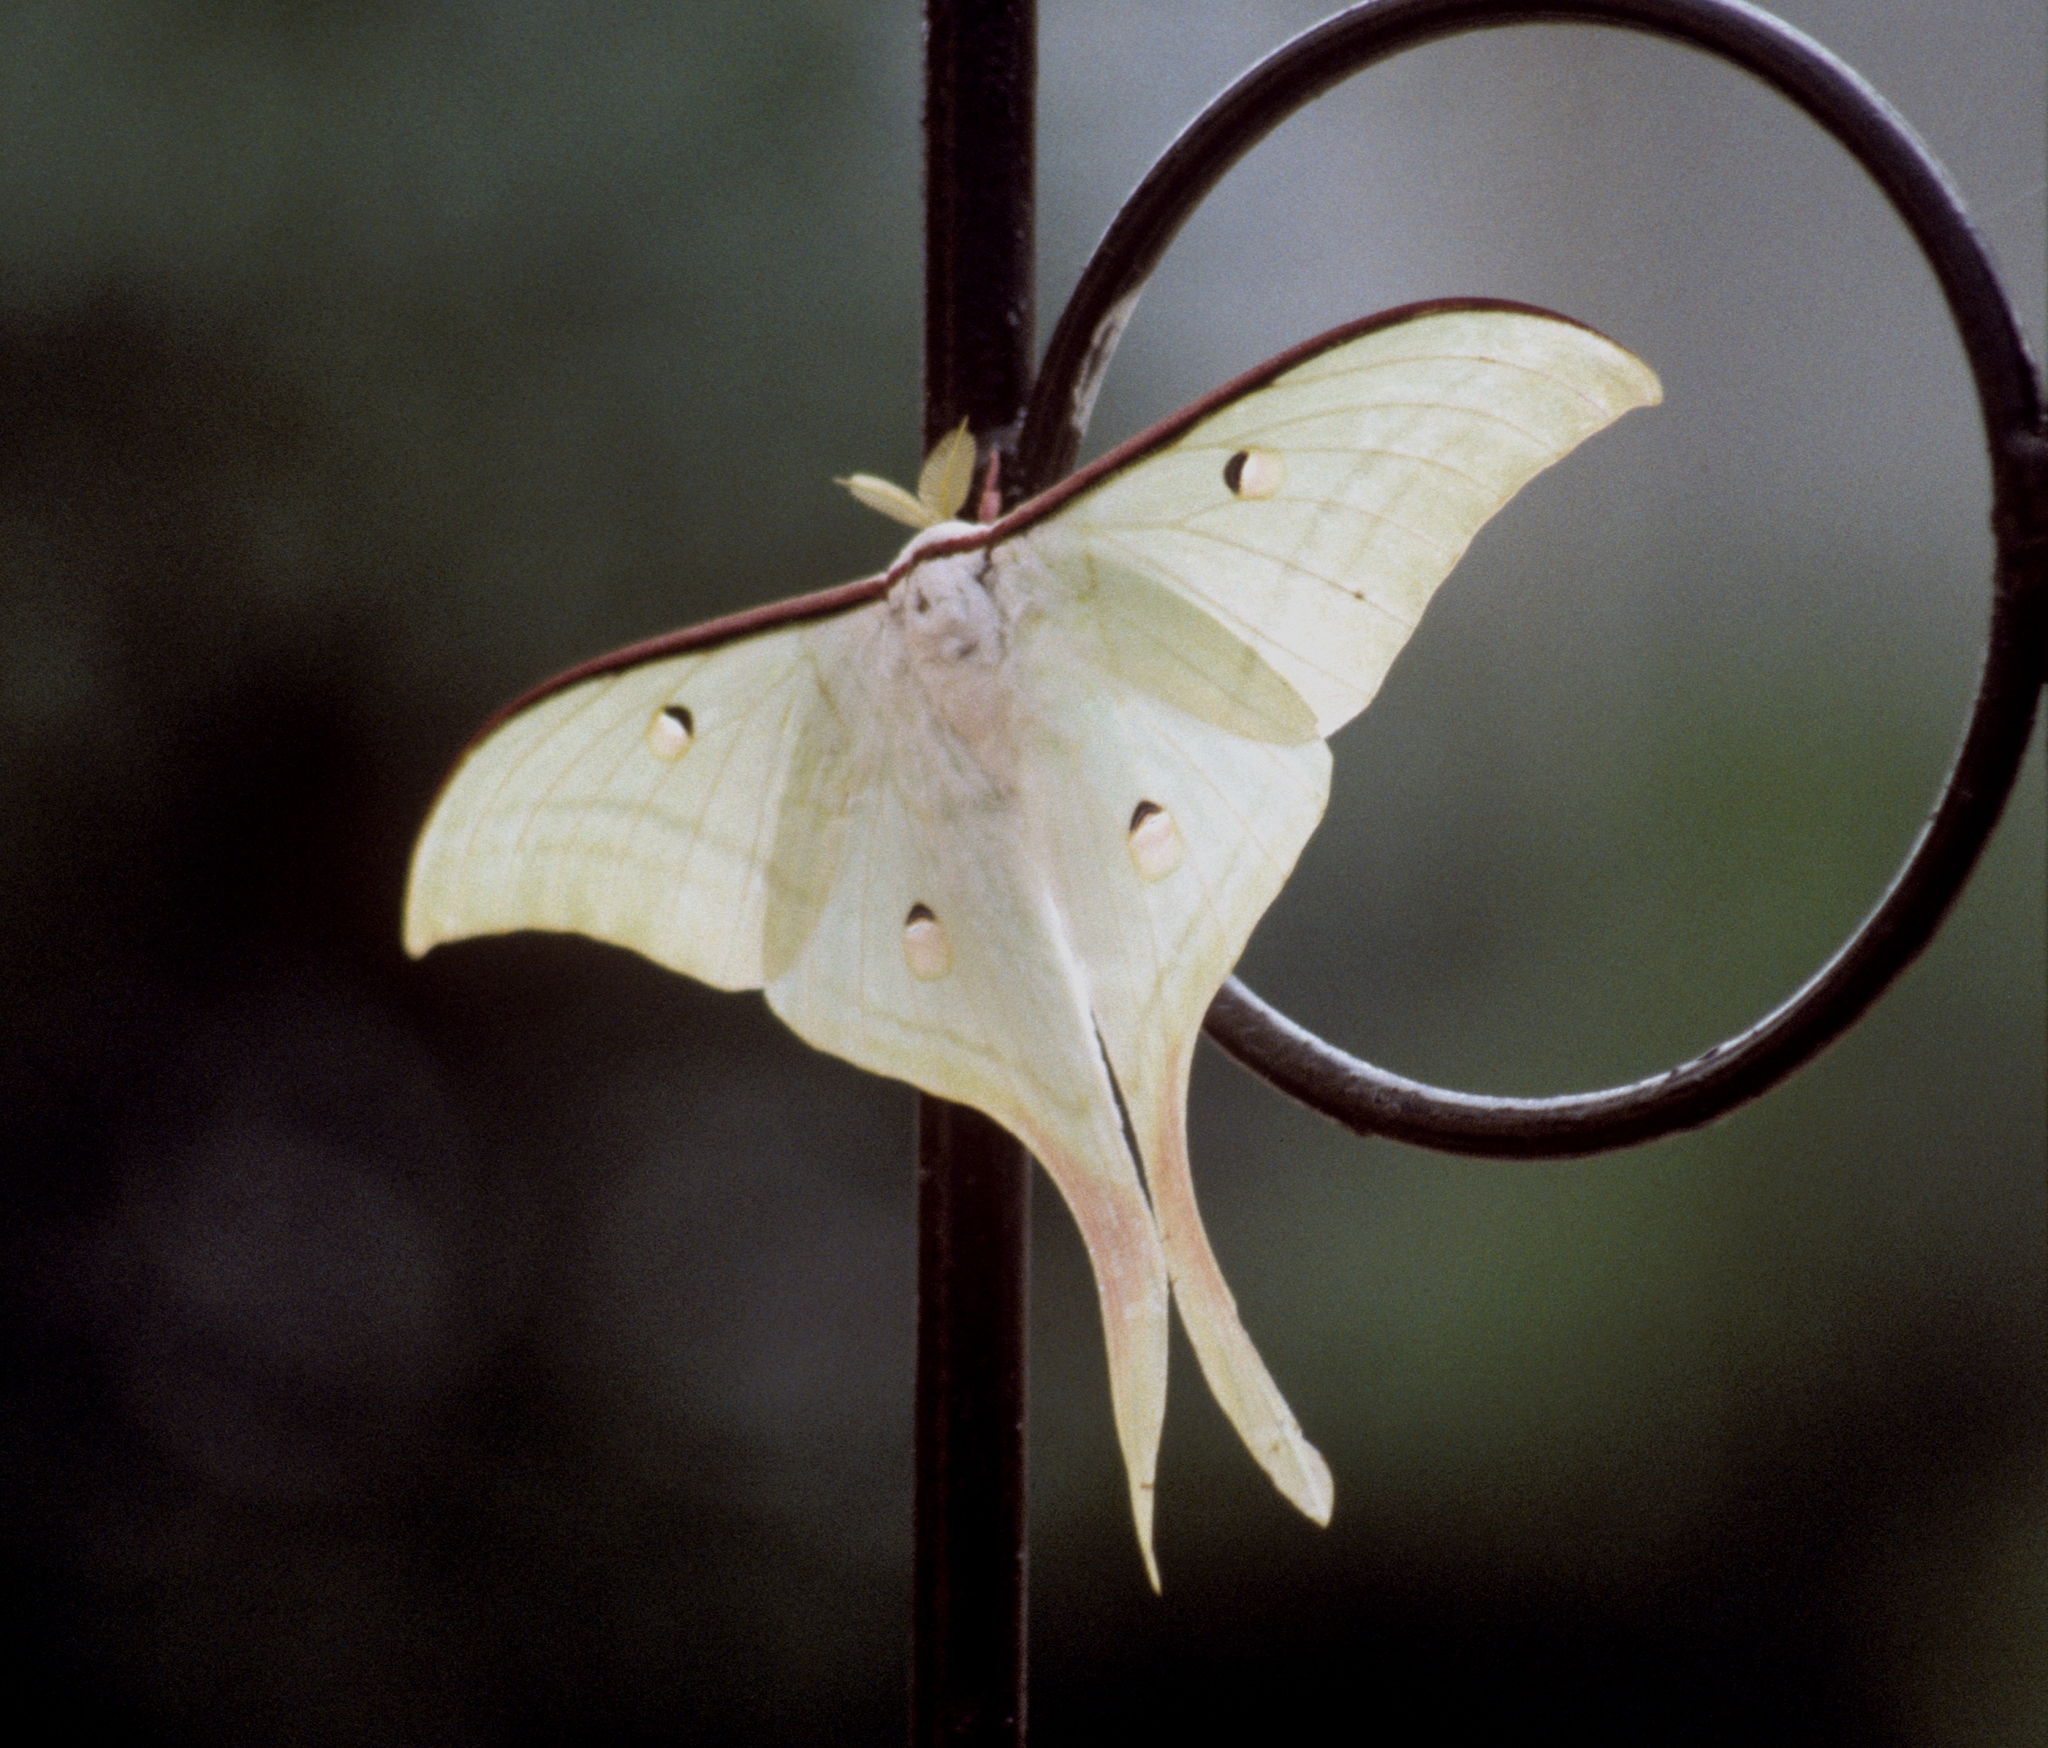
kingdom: Animalia
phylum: Arthropoda
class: Insecta
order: Lepidoptera
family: Saturniidae
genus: Actias
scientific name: Actias selene
